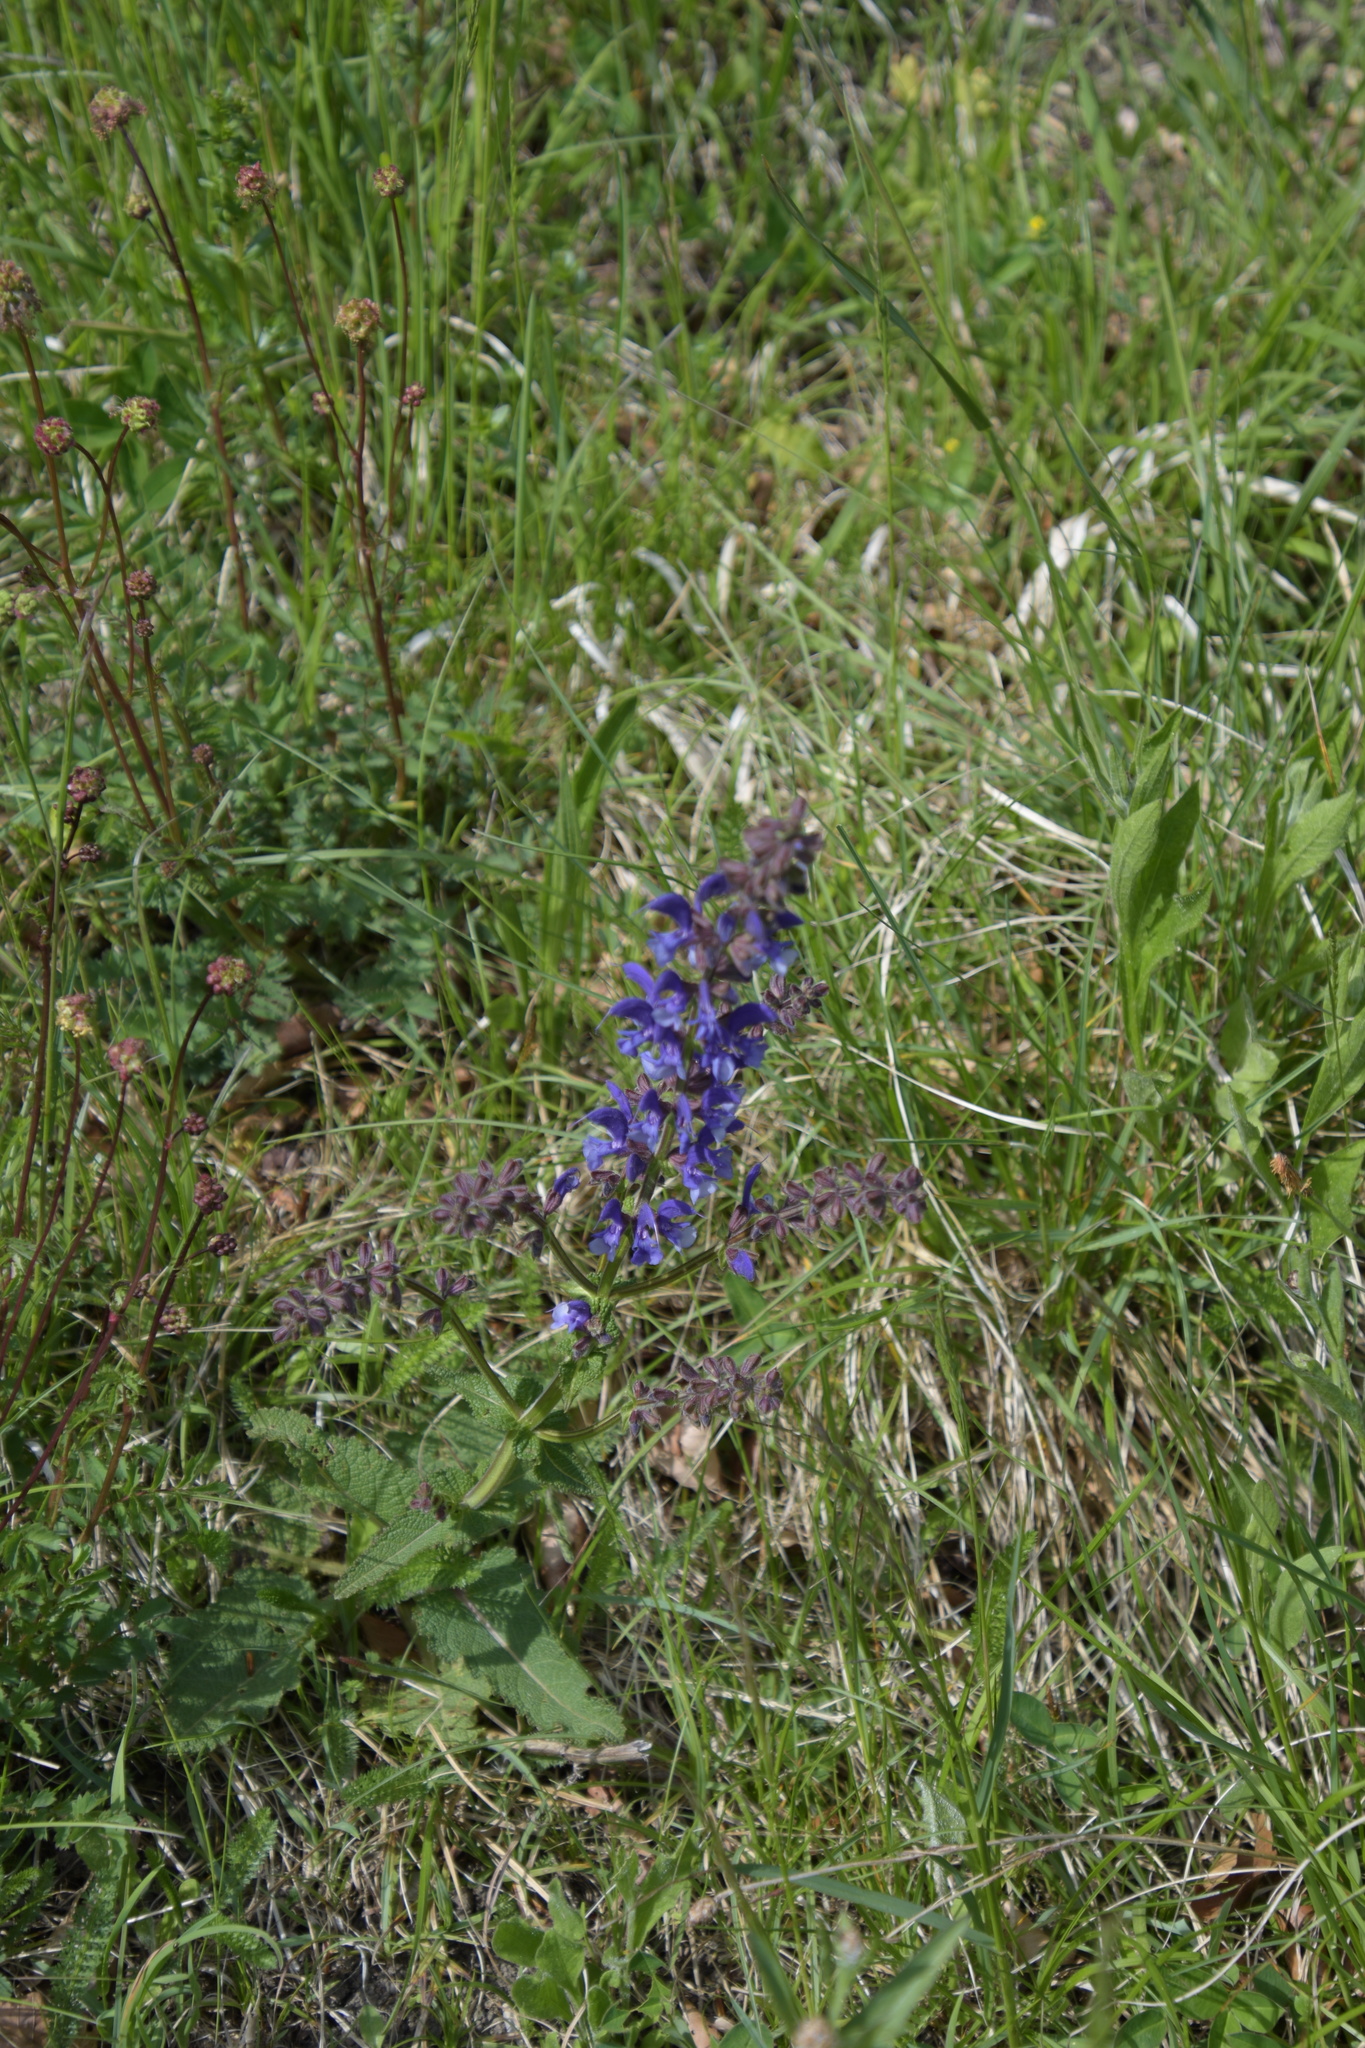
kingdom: Plantae
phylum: Tracheophyta
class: Magnoliopsida
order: Lamiales
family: Lamiaceae
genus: Salvia
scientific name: Salvia pratensis
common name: Meadow sage
